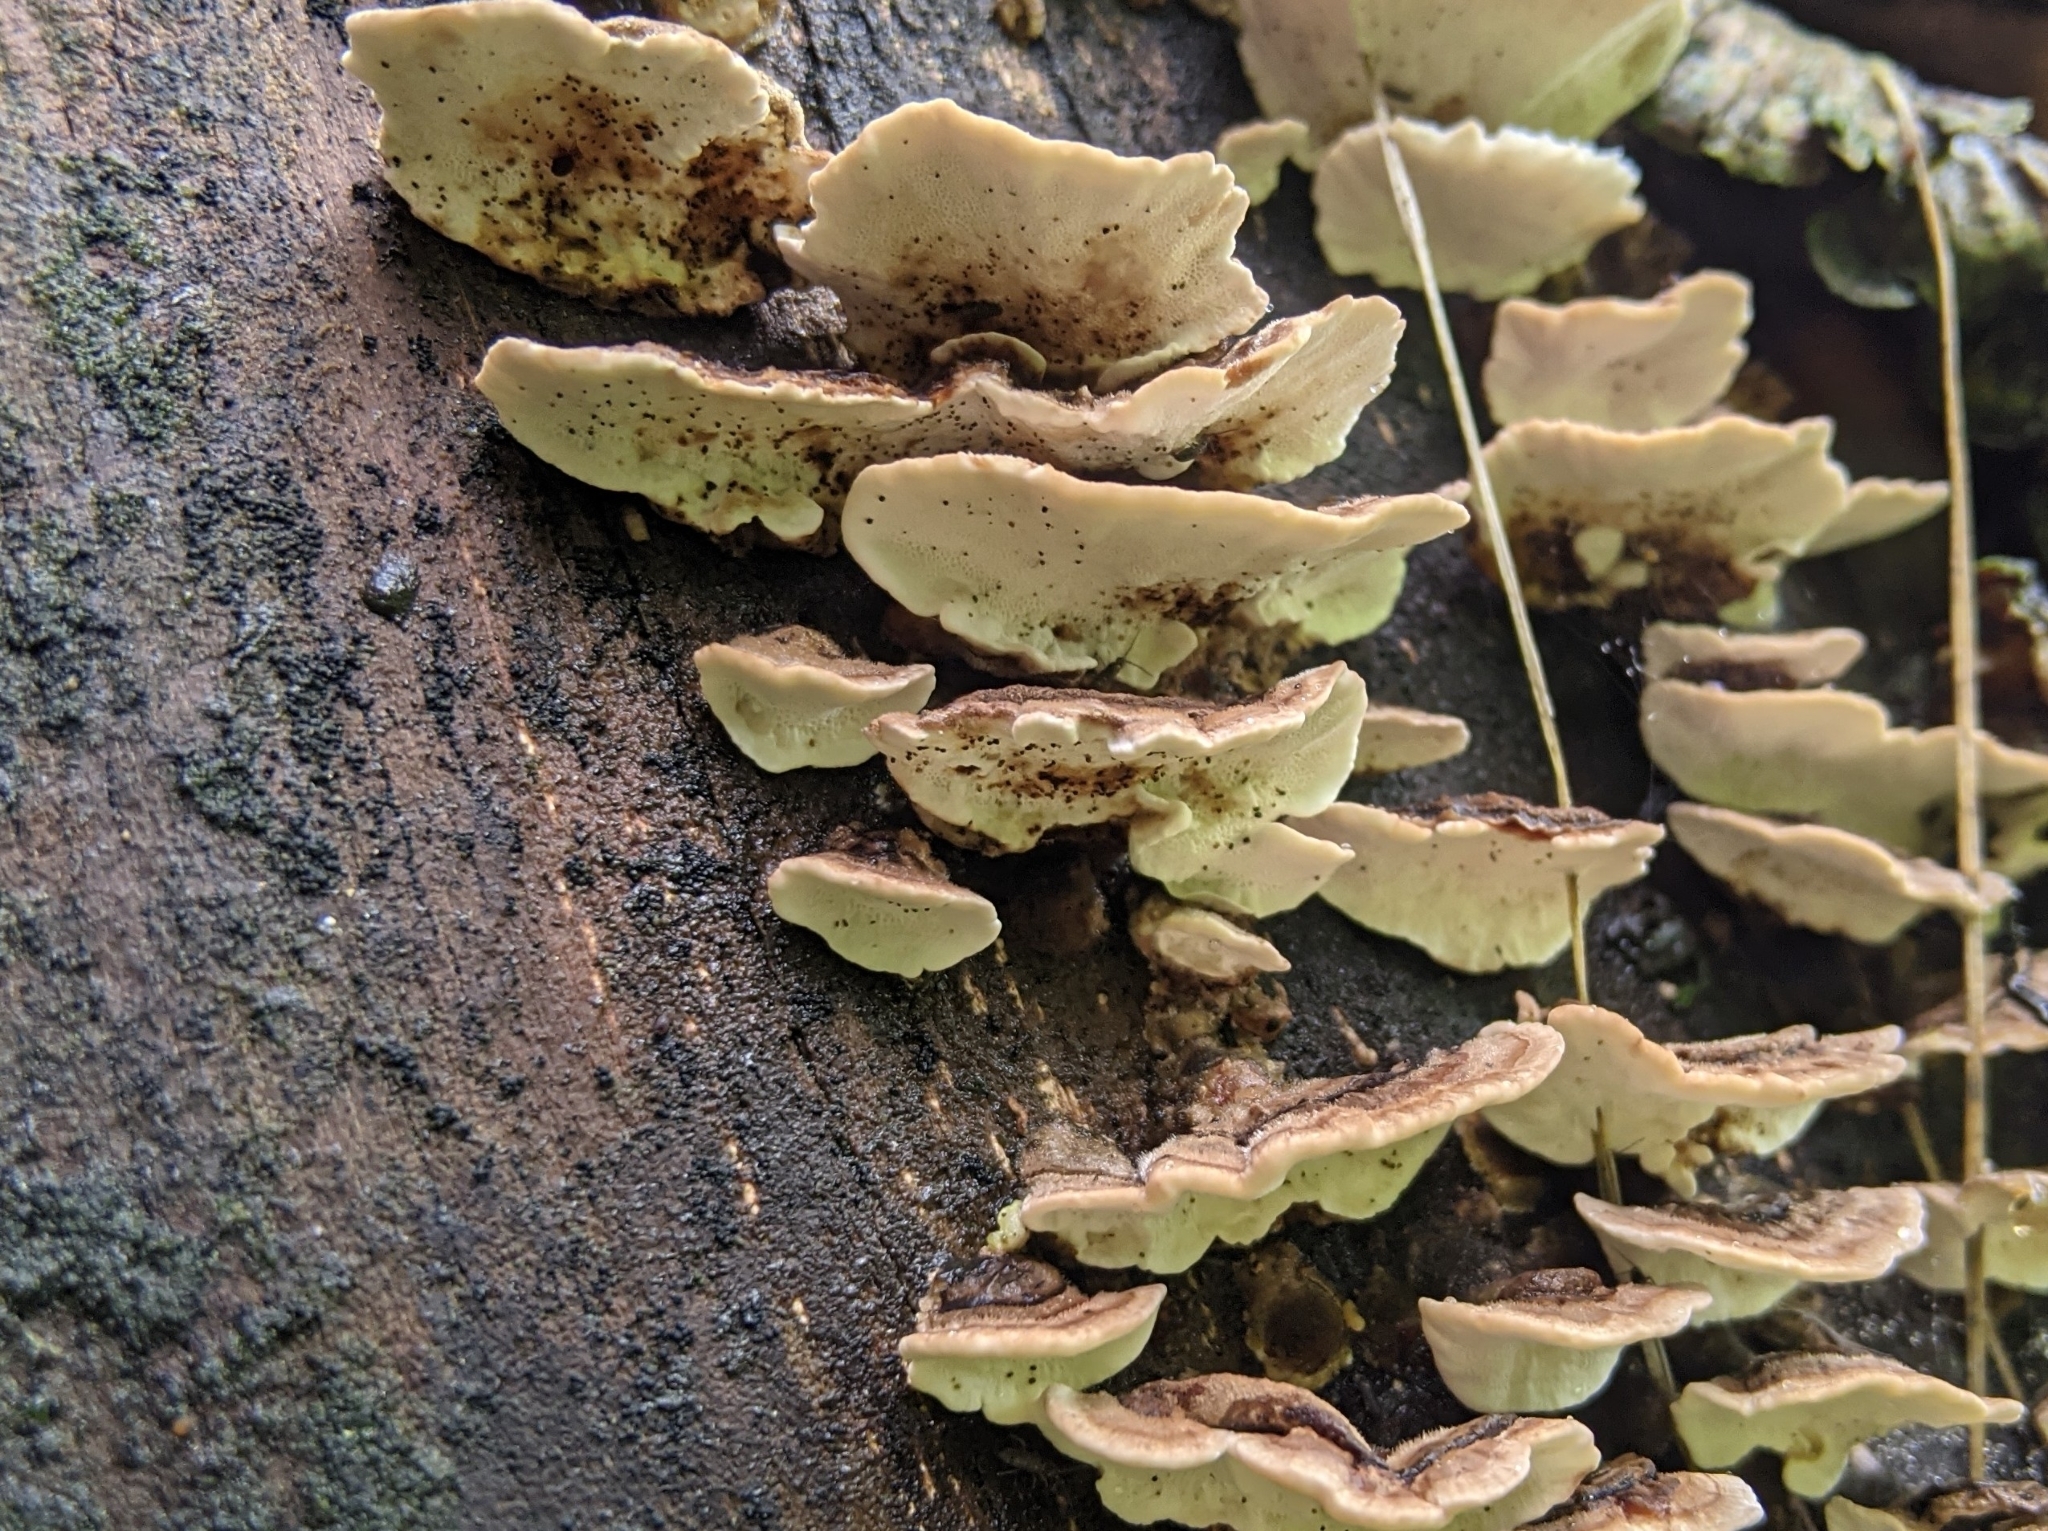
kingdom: Fungi
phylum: Basidiomycota
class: Agaricomycetes
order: Polyporales
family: Polyporaceae
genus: Trametes
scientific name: Trametes versicolor
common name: Turkeytail
